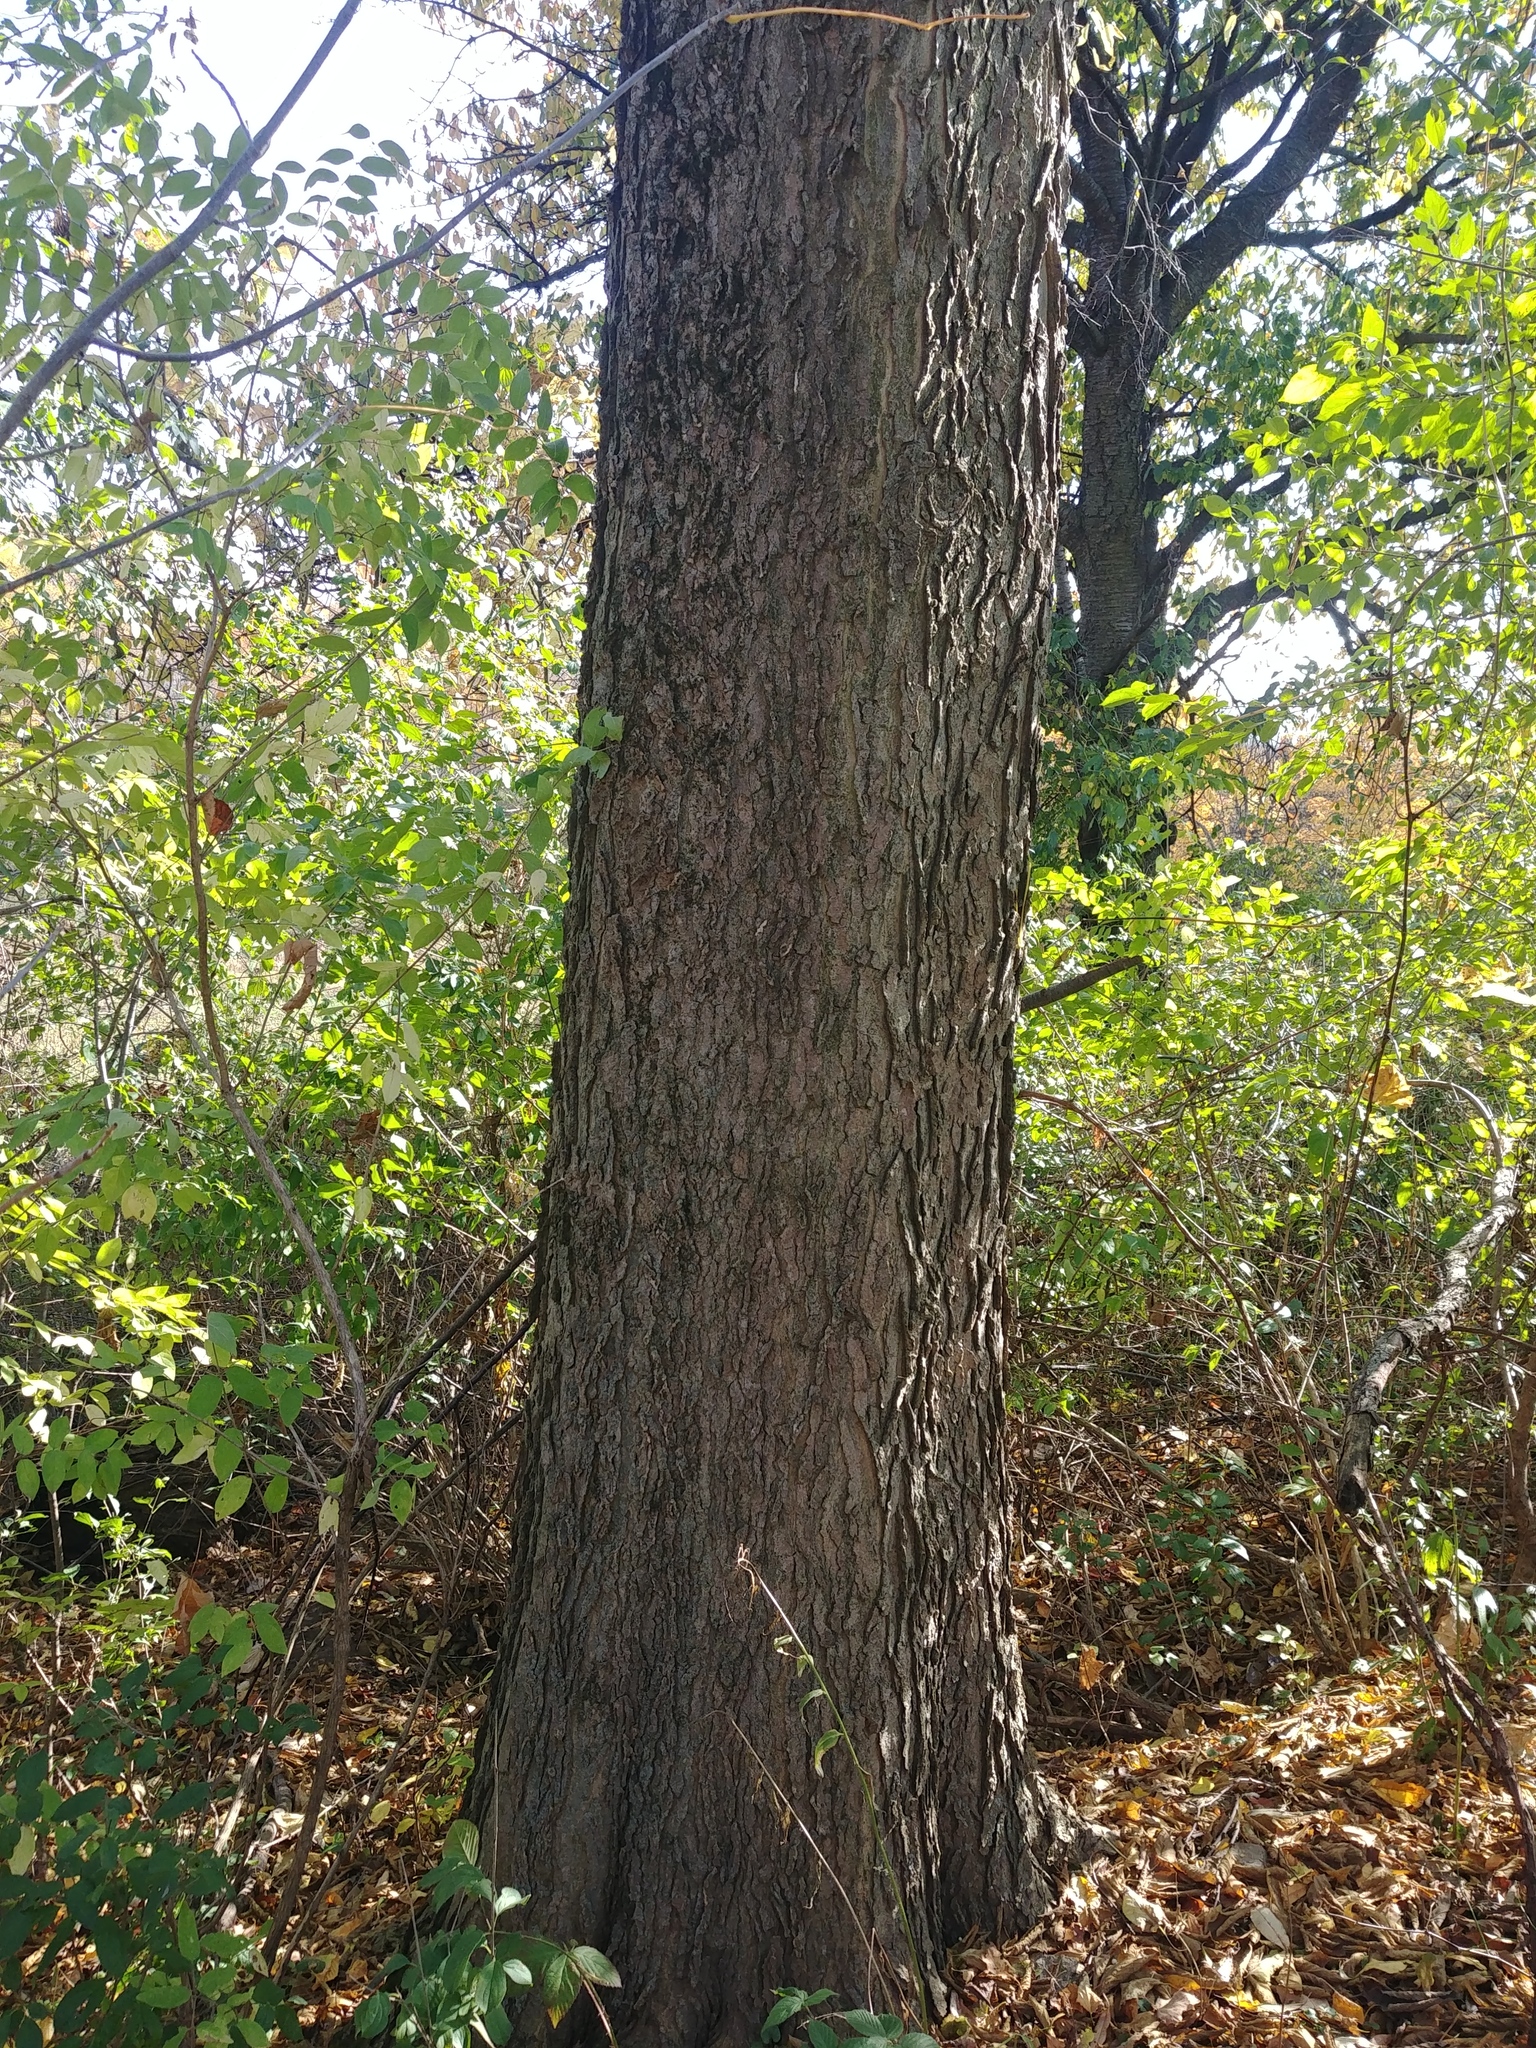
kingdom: Plantae
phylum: Tracheophyta
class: Magnoliopsida
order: Rosales
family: Cannabaceae
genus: Celtis
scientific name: Celtis occidentalis
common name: Common hackberry
